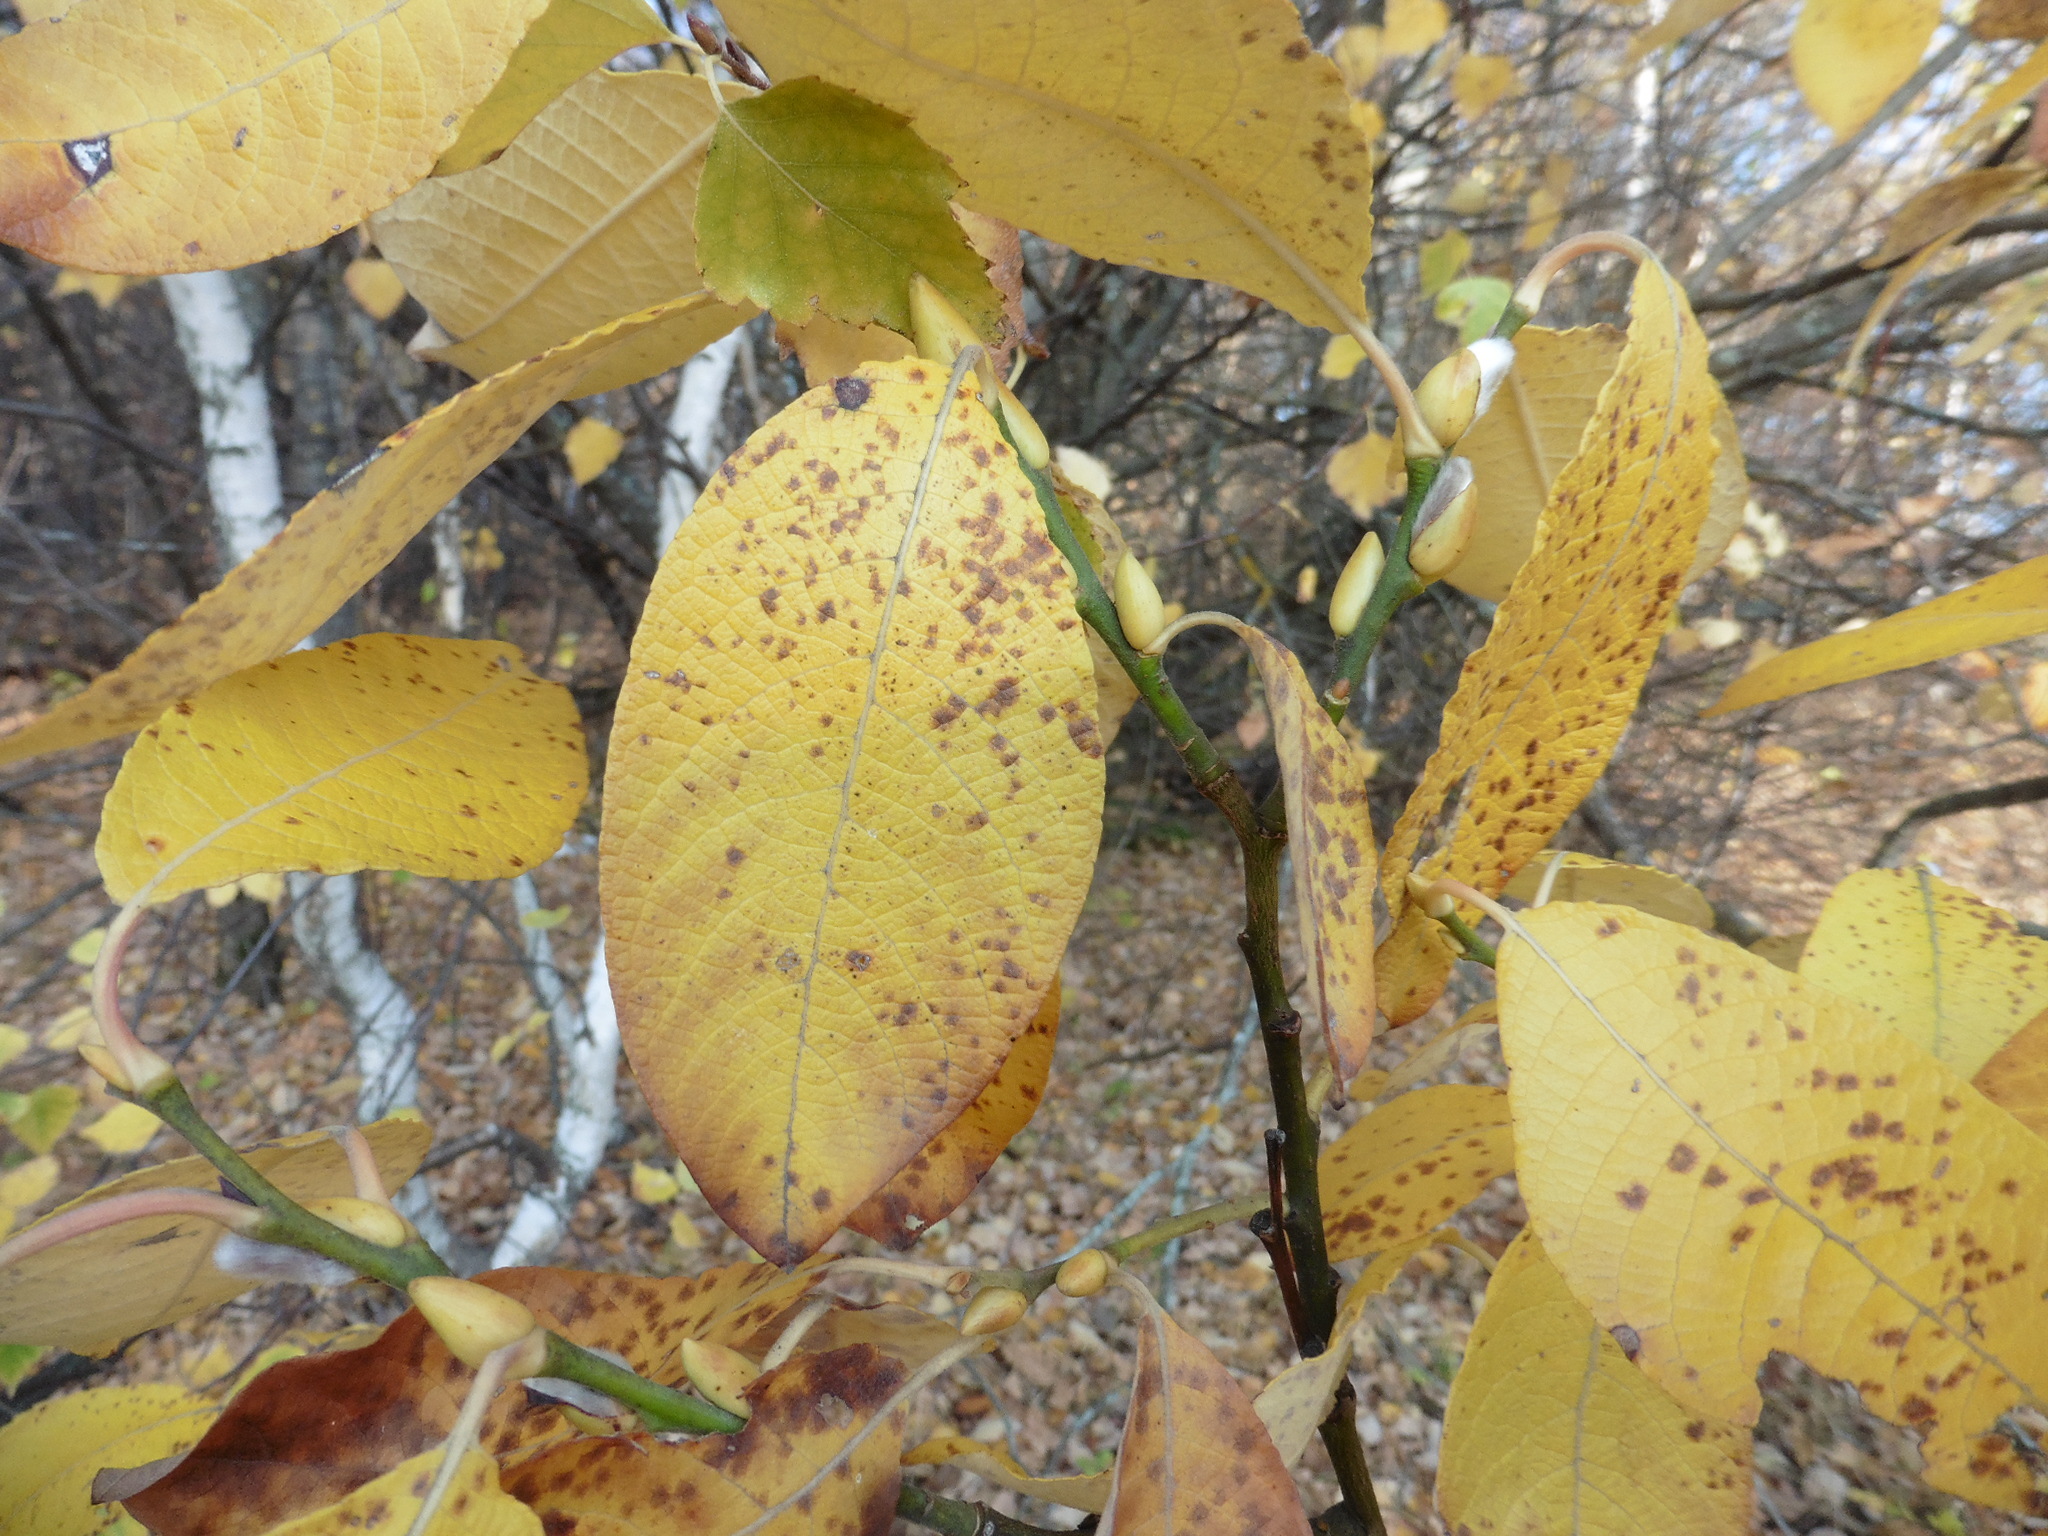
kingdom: Plantae
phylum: Tracheophyta
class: Magnoliopsida
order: Malpighiales
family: Salicaceae
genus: Salix
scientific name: Salix caprea
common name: Goat willow
